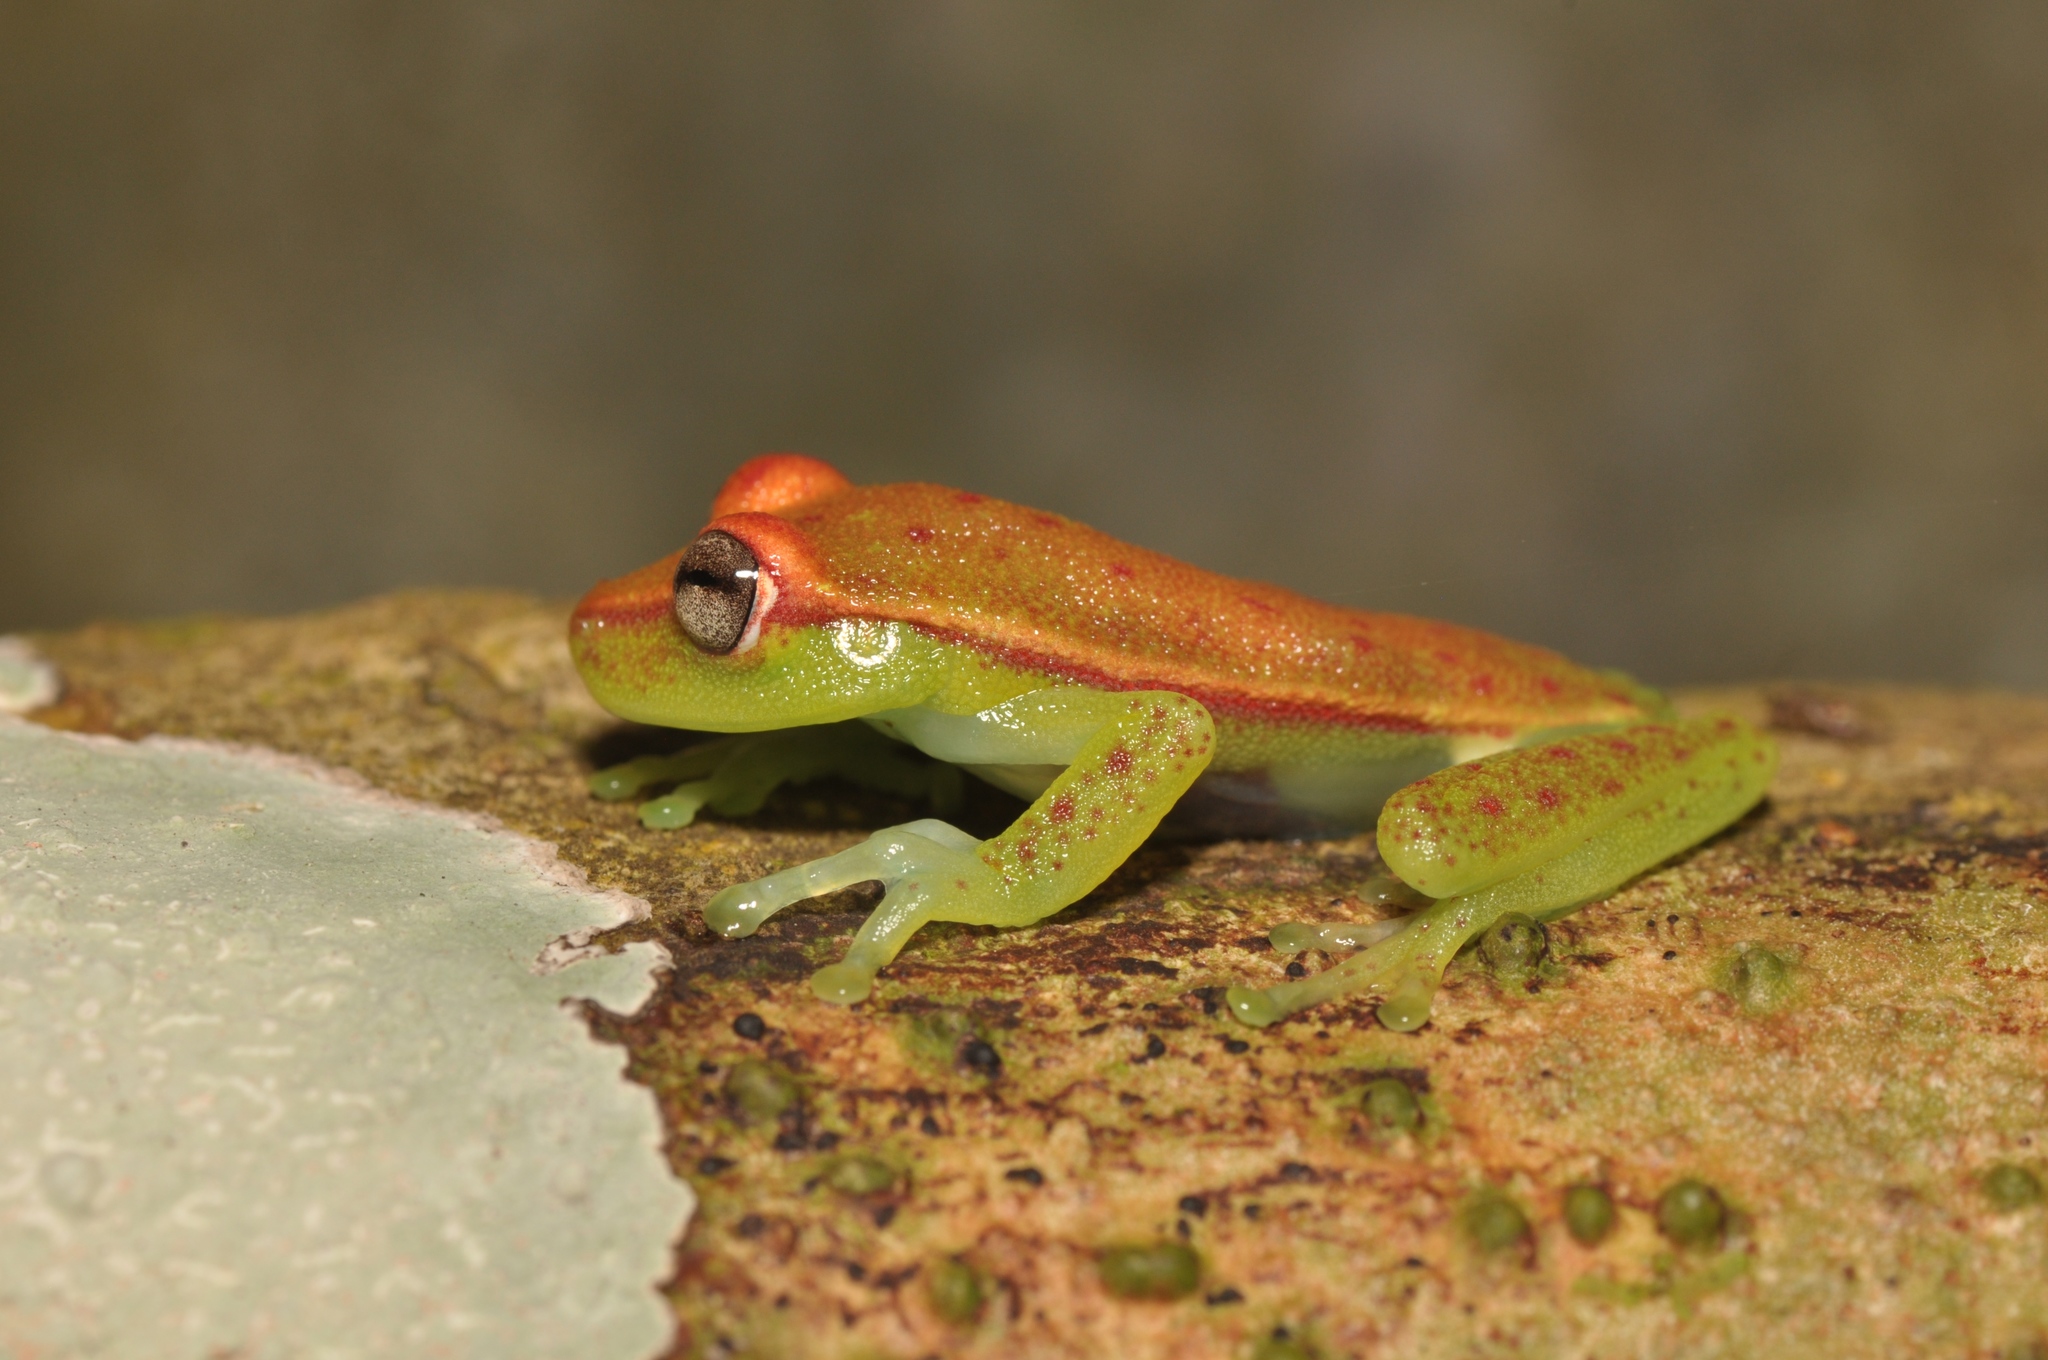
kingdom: Animalia
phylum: Chordata
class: Amphibia
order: Anura
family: Hylidae
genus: Boana
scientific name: Boana punctata
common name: Polka-dot treefrog
